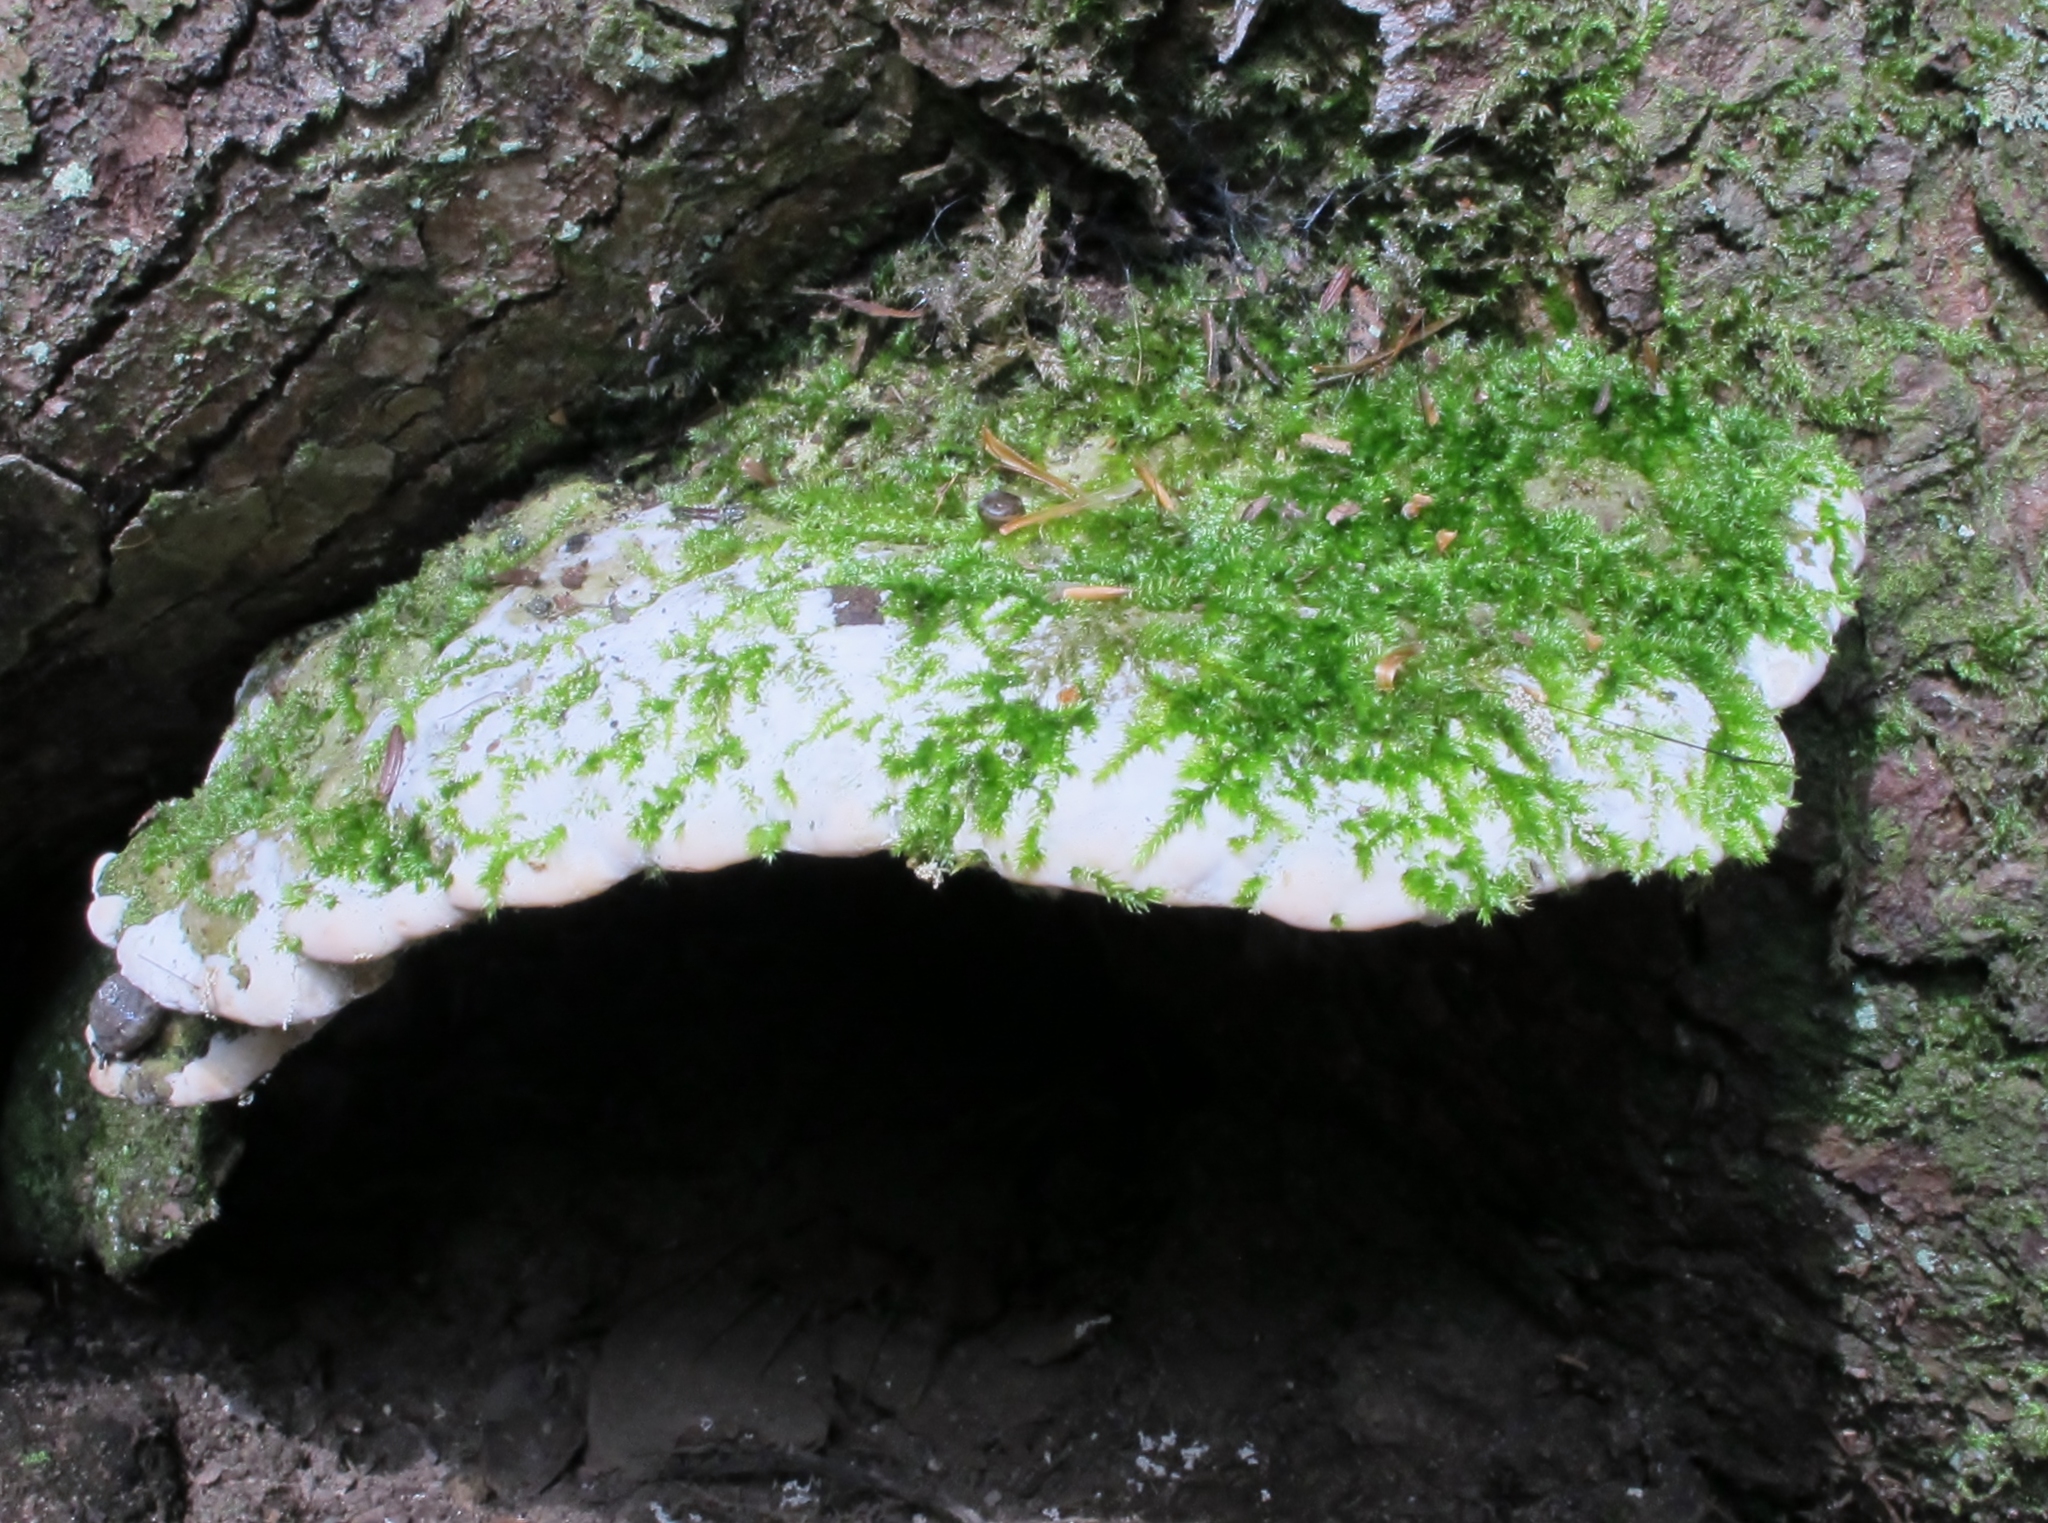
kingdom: Fungi
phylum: Basidiomycota
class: Agaricomycetes
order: Hymenochaetales
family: Oxyporaceae
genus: Oxyporus
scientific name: Oxyporus populinus
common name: Poplar bracket
